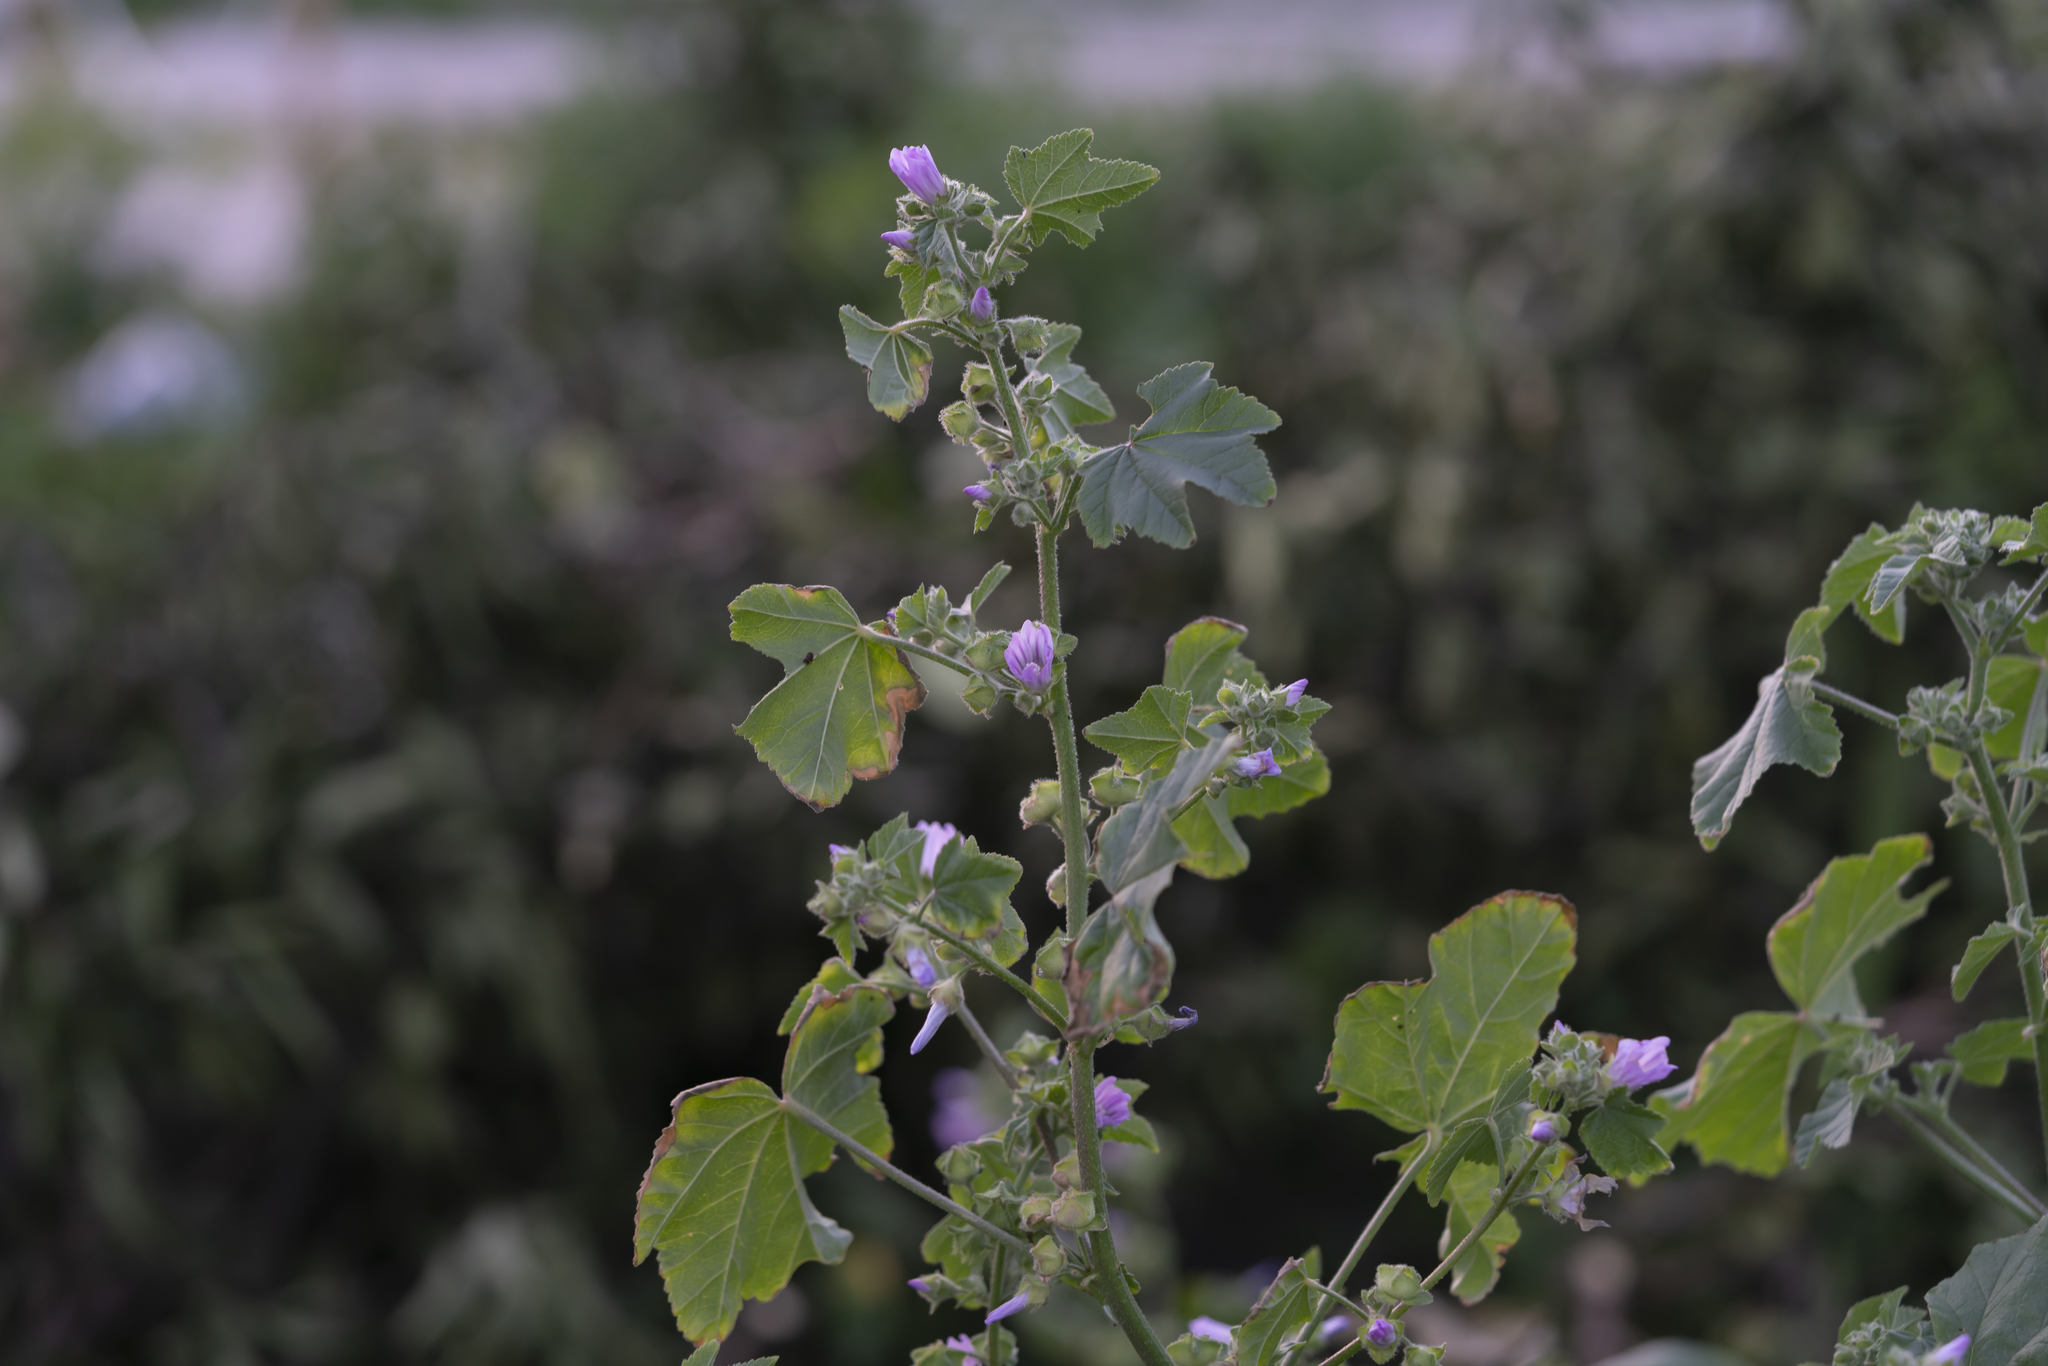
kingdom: Plantae
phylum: Tracheophyta
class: Magnoliopsida
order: Malvales
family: Malvaceae
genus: Malva
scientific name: Malva multiflora
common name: Cheeseweed
